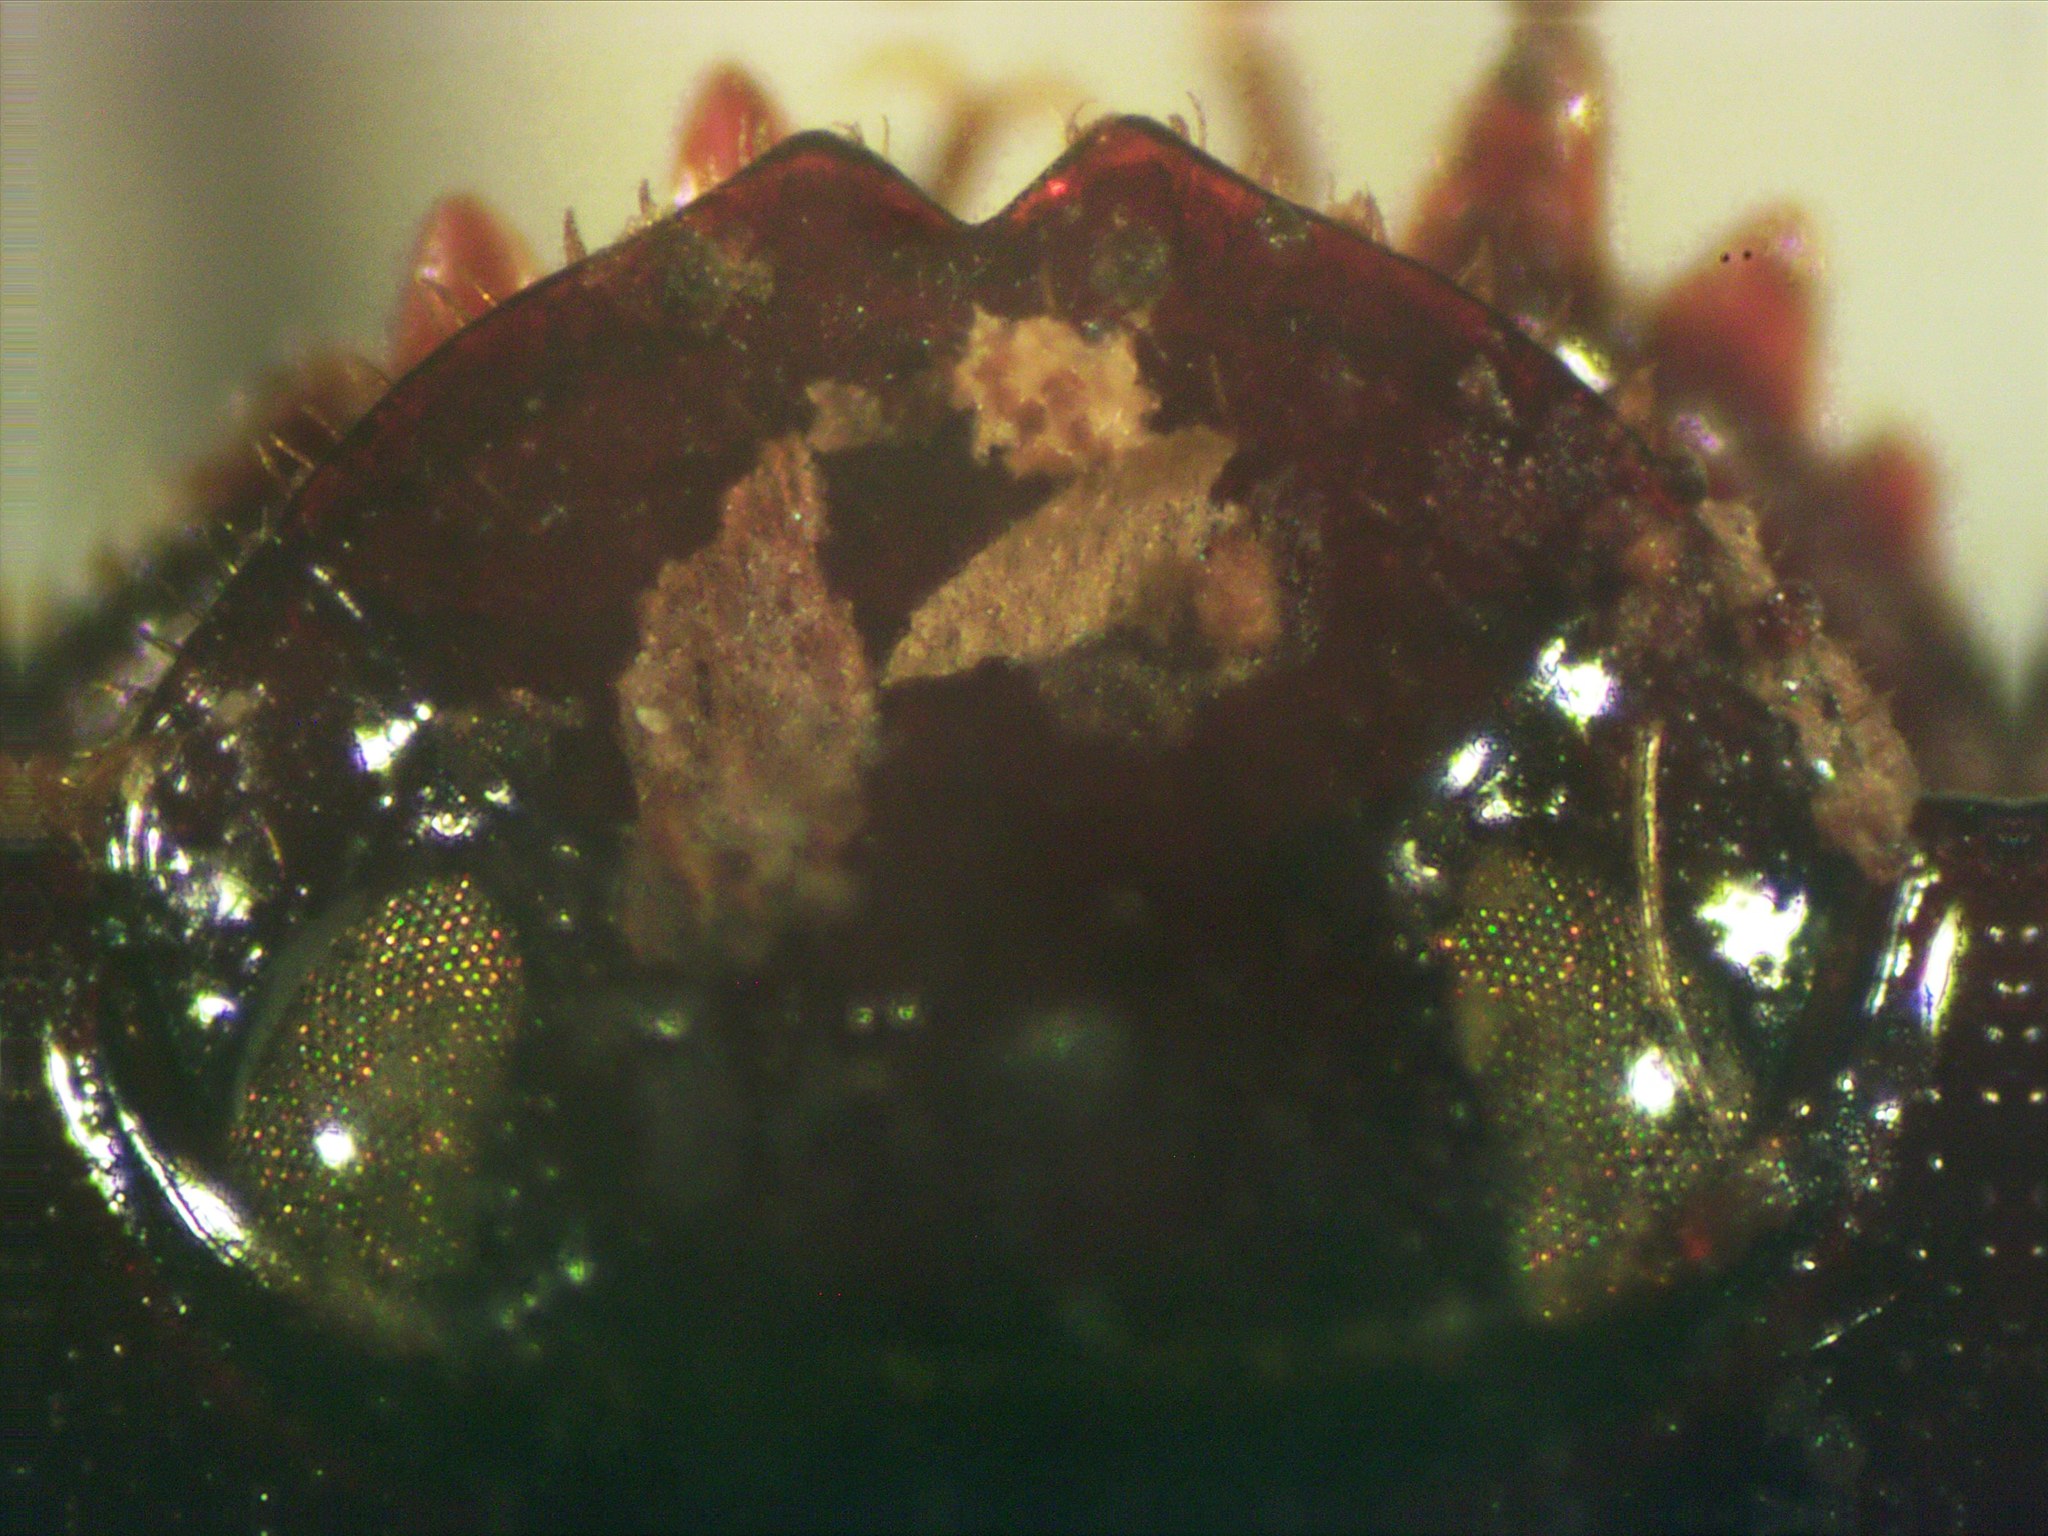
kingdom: Animalia
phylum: Arthropoda
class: Insecta
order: Coleoptera
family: Scarabaeidae
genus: Agamopus
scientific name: Agamopus lampros
